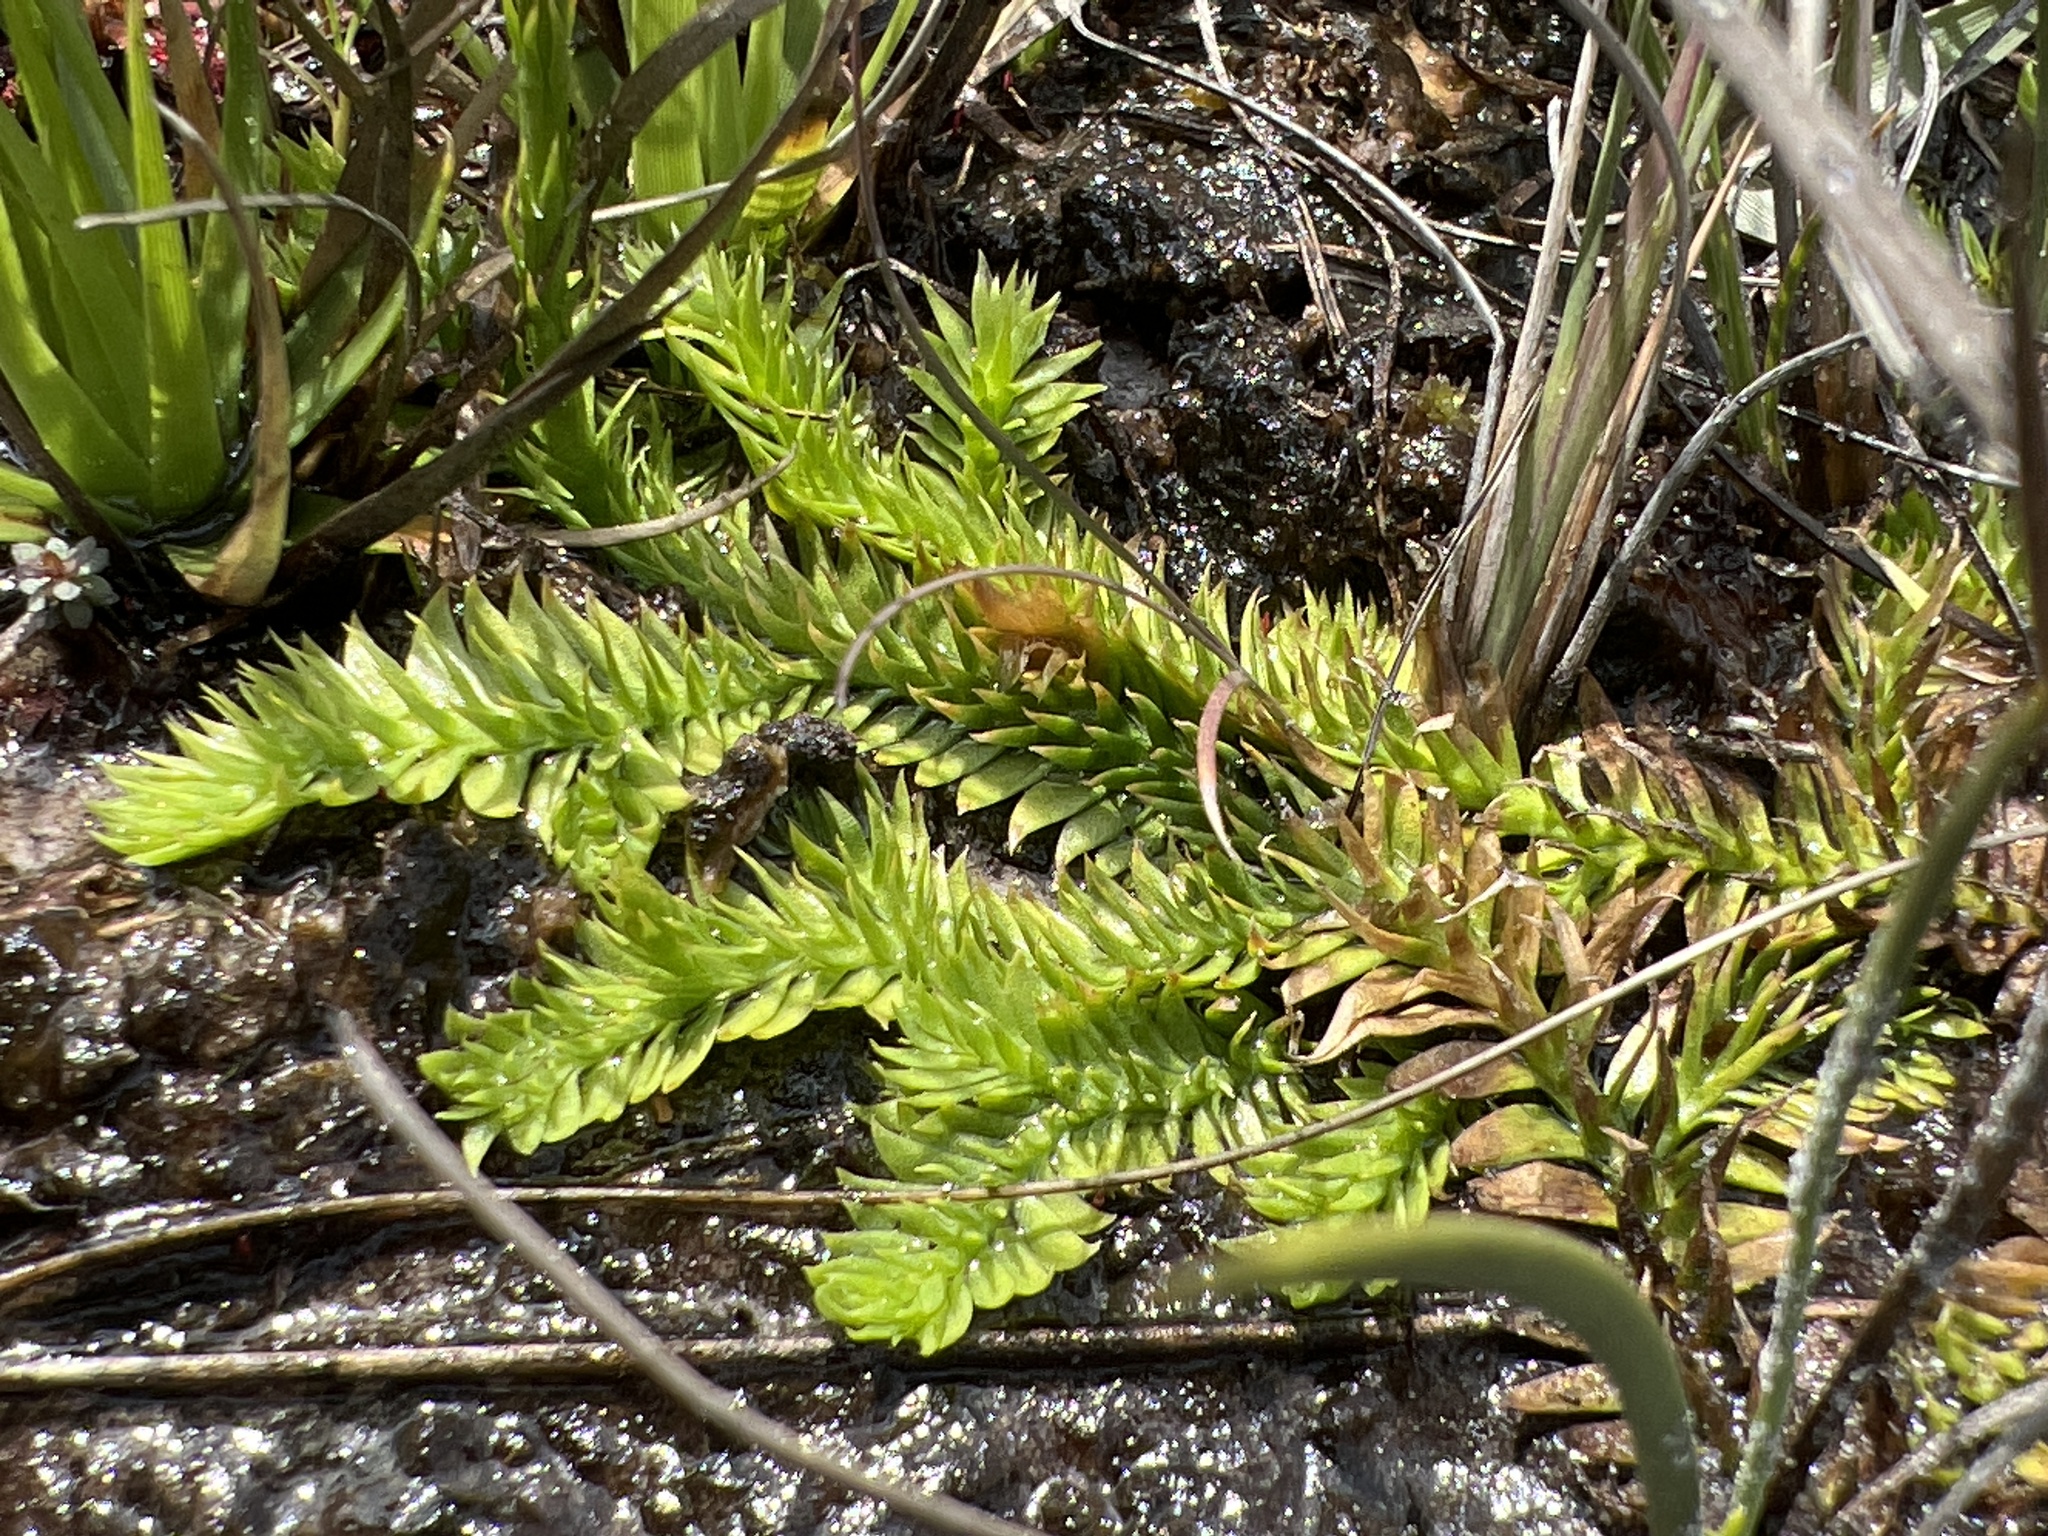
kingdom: Plantae
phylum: Tracheophyta
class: Lycopodiopsida
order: Lycopodiales
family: Lycopodiaceae
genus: Pseudolycopodiella
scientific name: Pseudolycopodiella caroliniana
